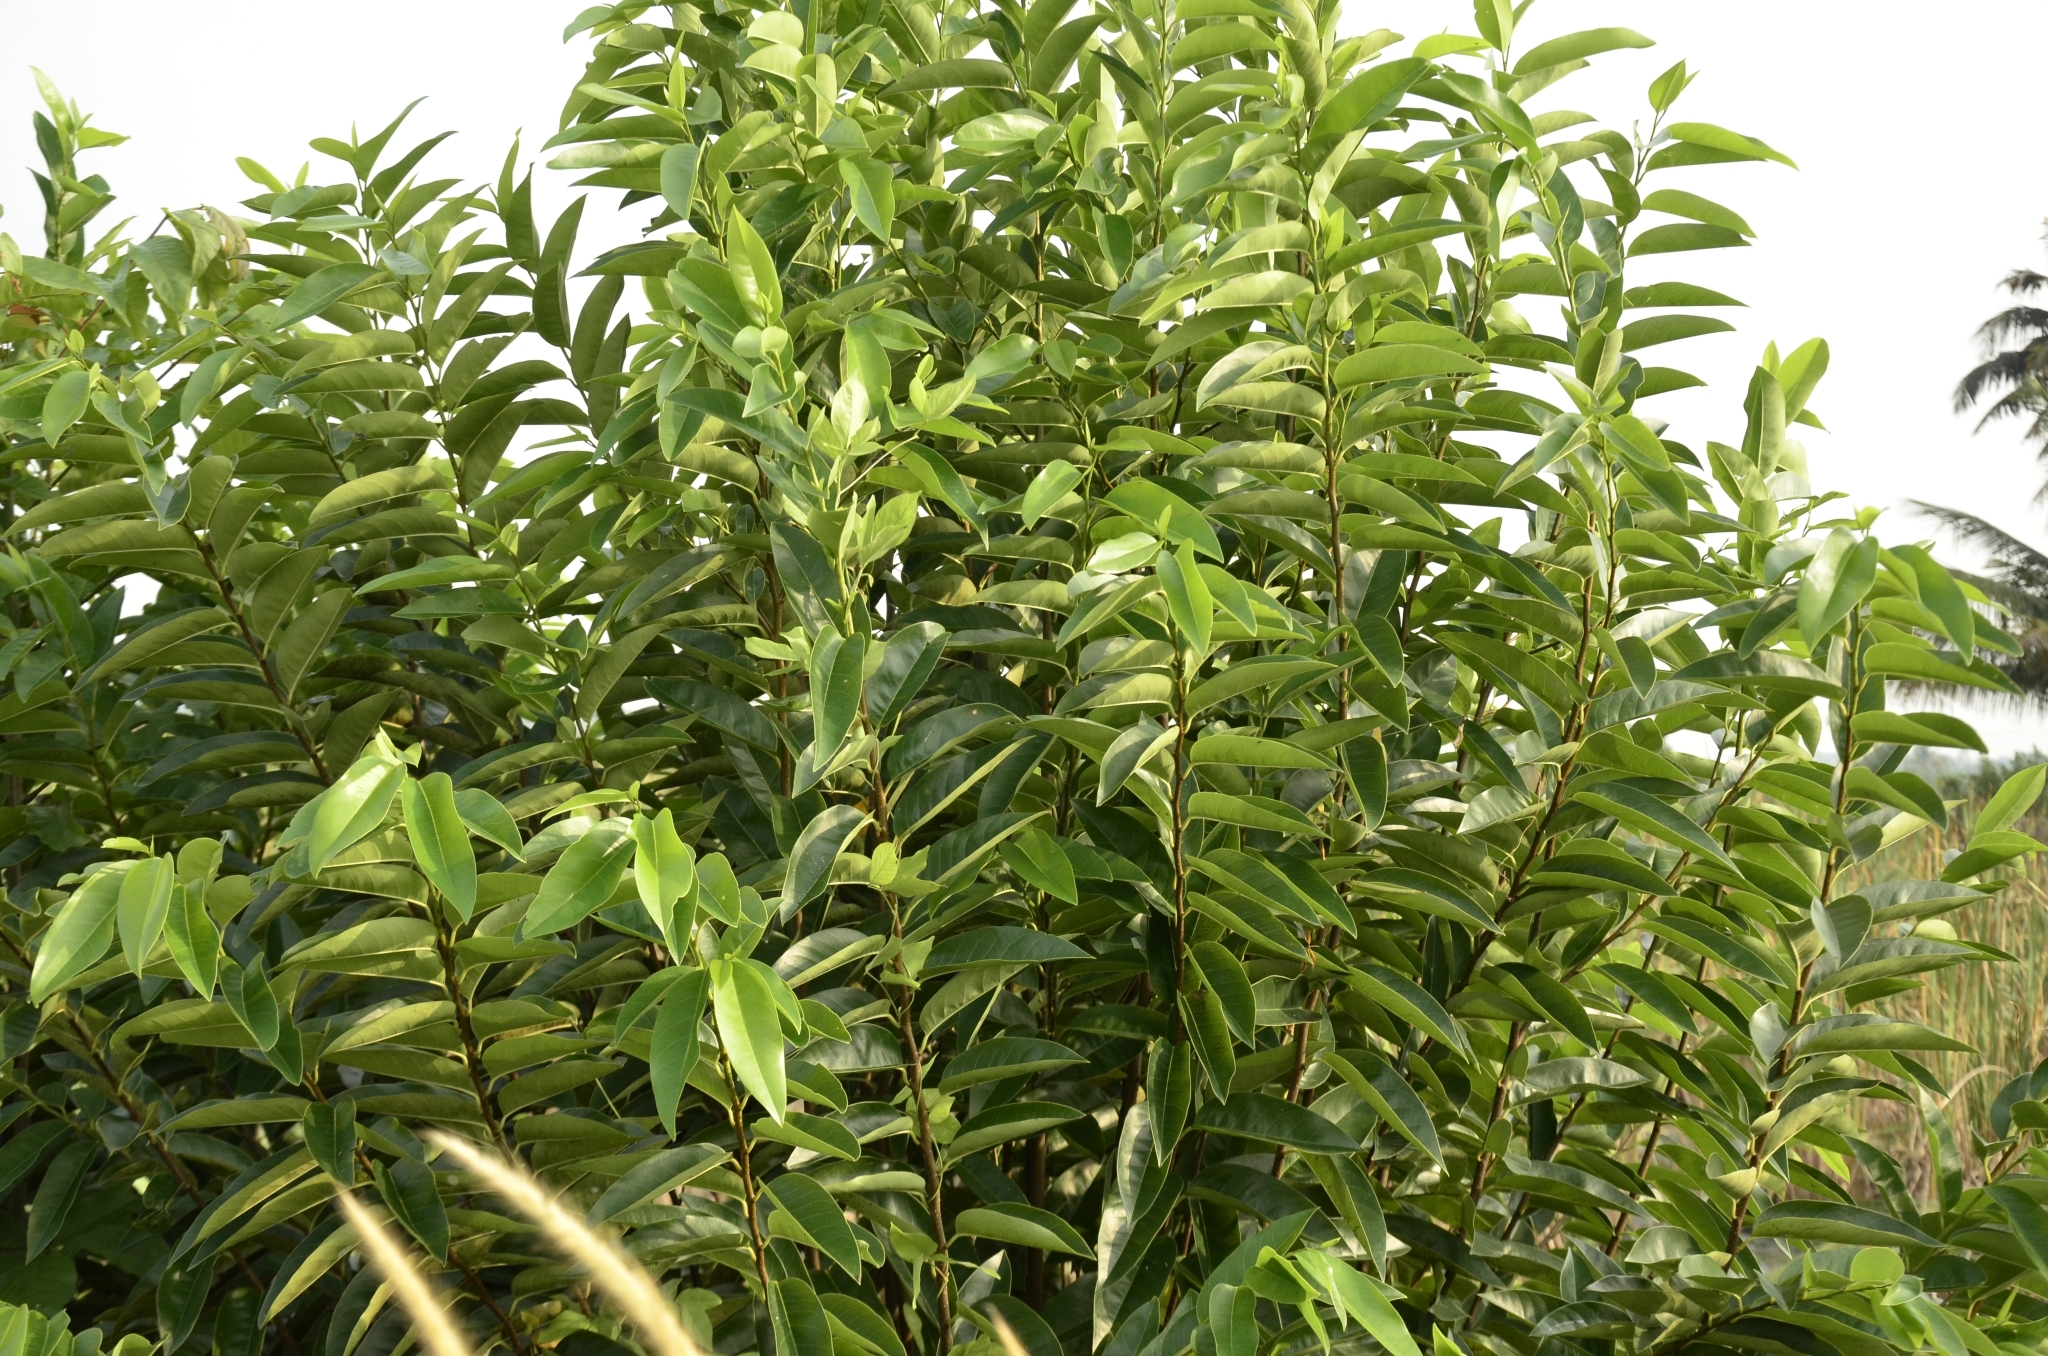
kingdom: Plantae
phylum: Tracheophyta
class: Magnoliopsida
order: Magnoliales
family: Annonaceae
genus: Annona
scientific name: Annona glabra
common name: Monkey apple
